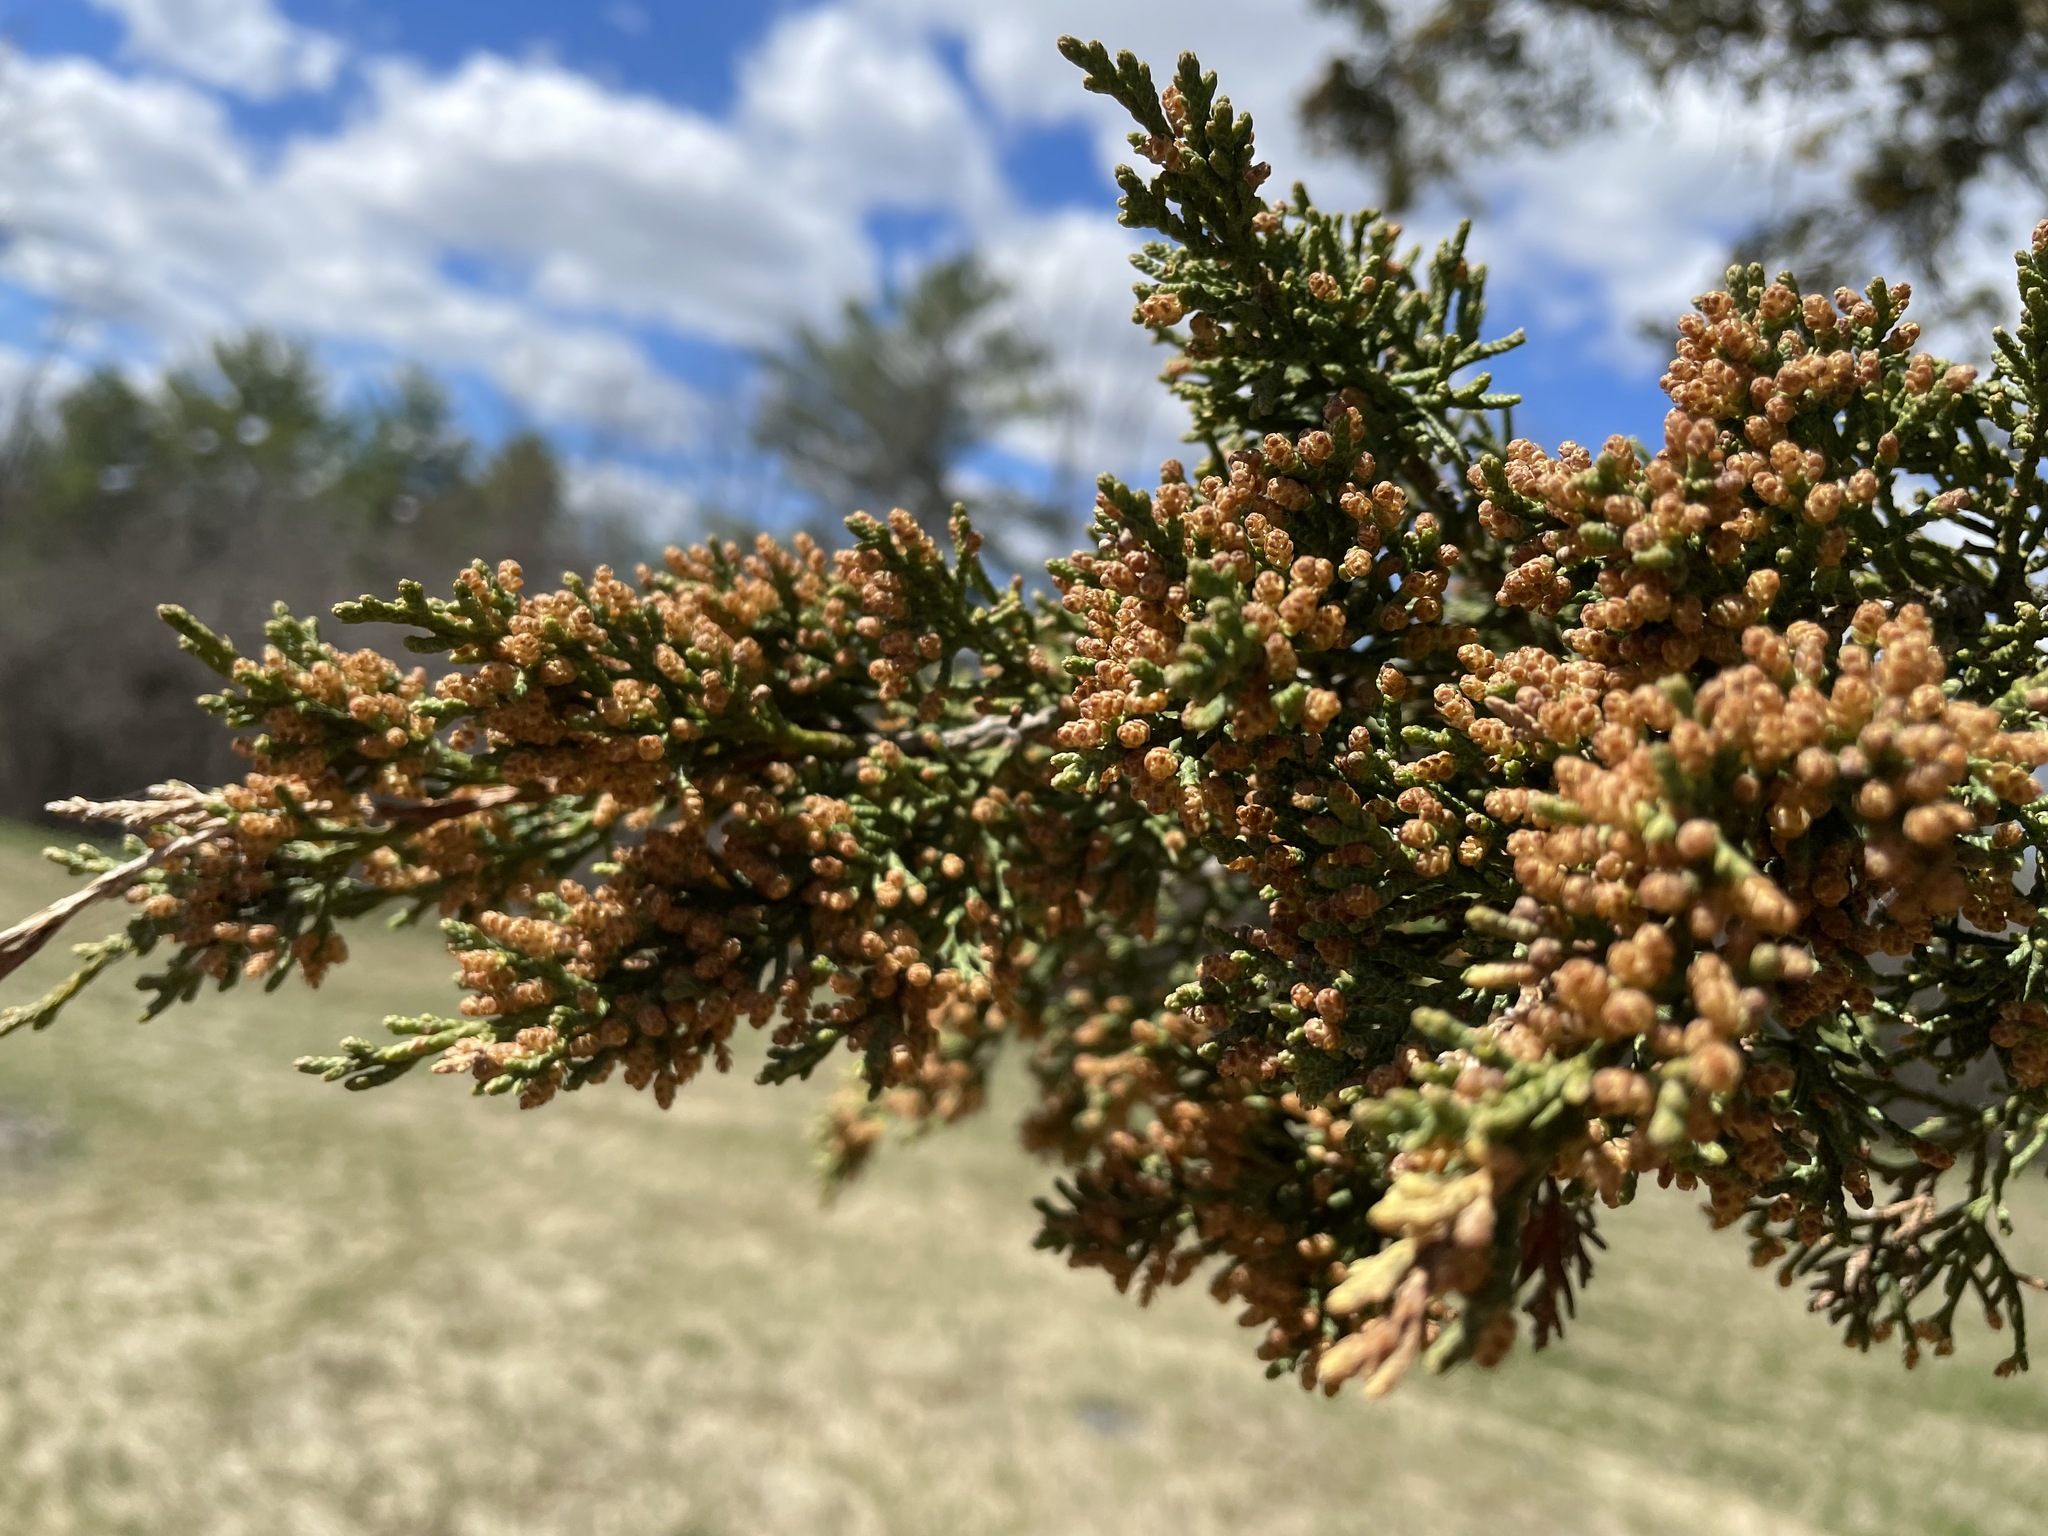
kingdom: Plantae
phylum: Tracheophyta
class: Pinopsida
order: Pinales
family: Cupressaceae
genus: Juniperus
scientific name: Juniperus virginiana
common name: Red juniper
